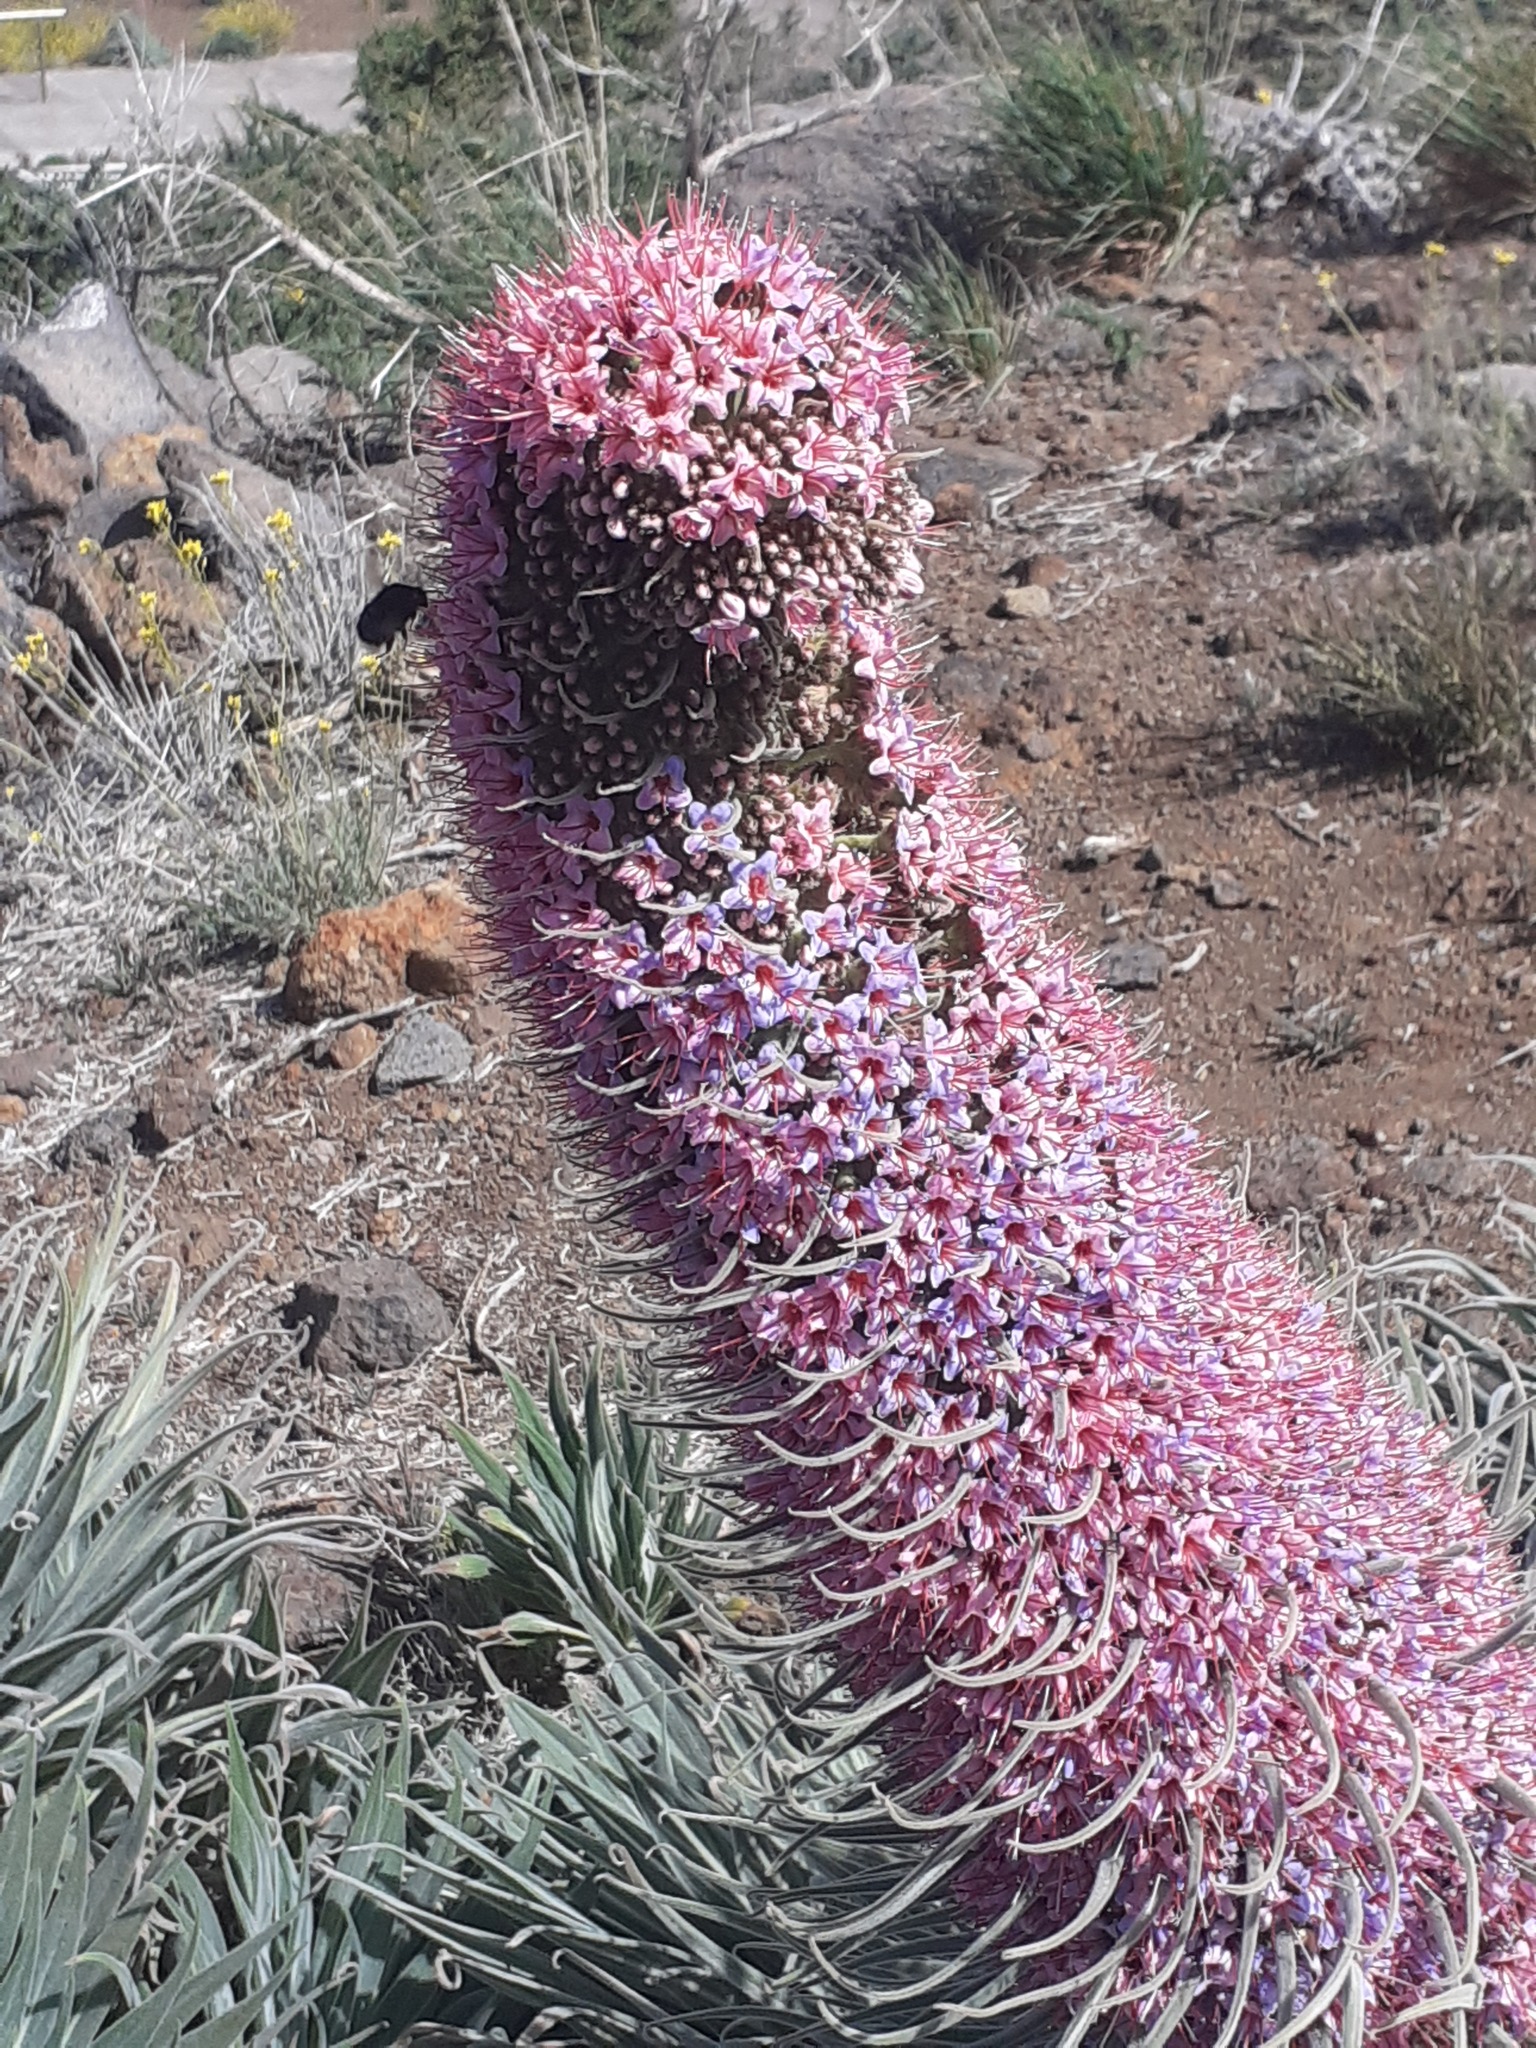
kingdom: Animalia
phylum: Arthropoda
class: Insecta
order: Hymenoptera
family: Apidae
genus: Bombus
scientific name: Bombus terrestris
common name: Buff-tailed bumblebee
